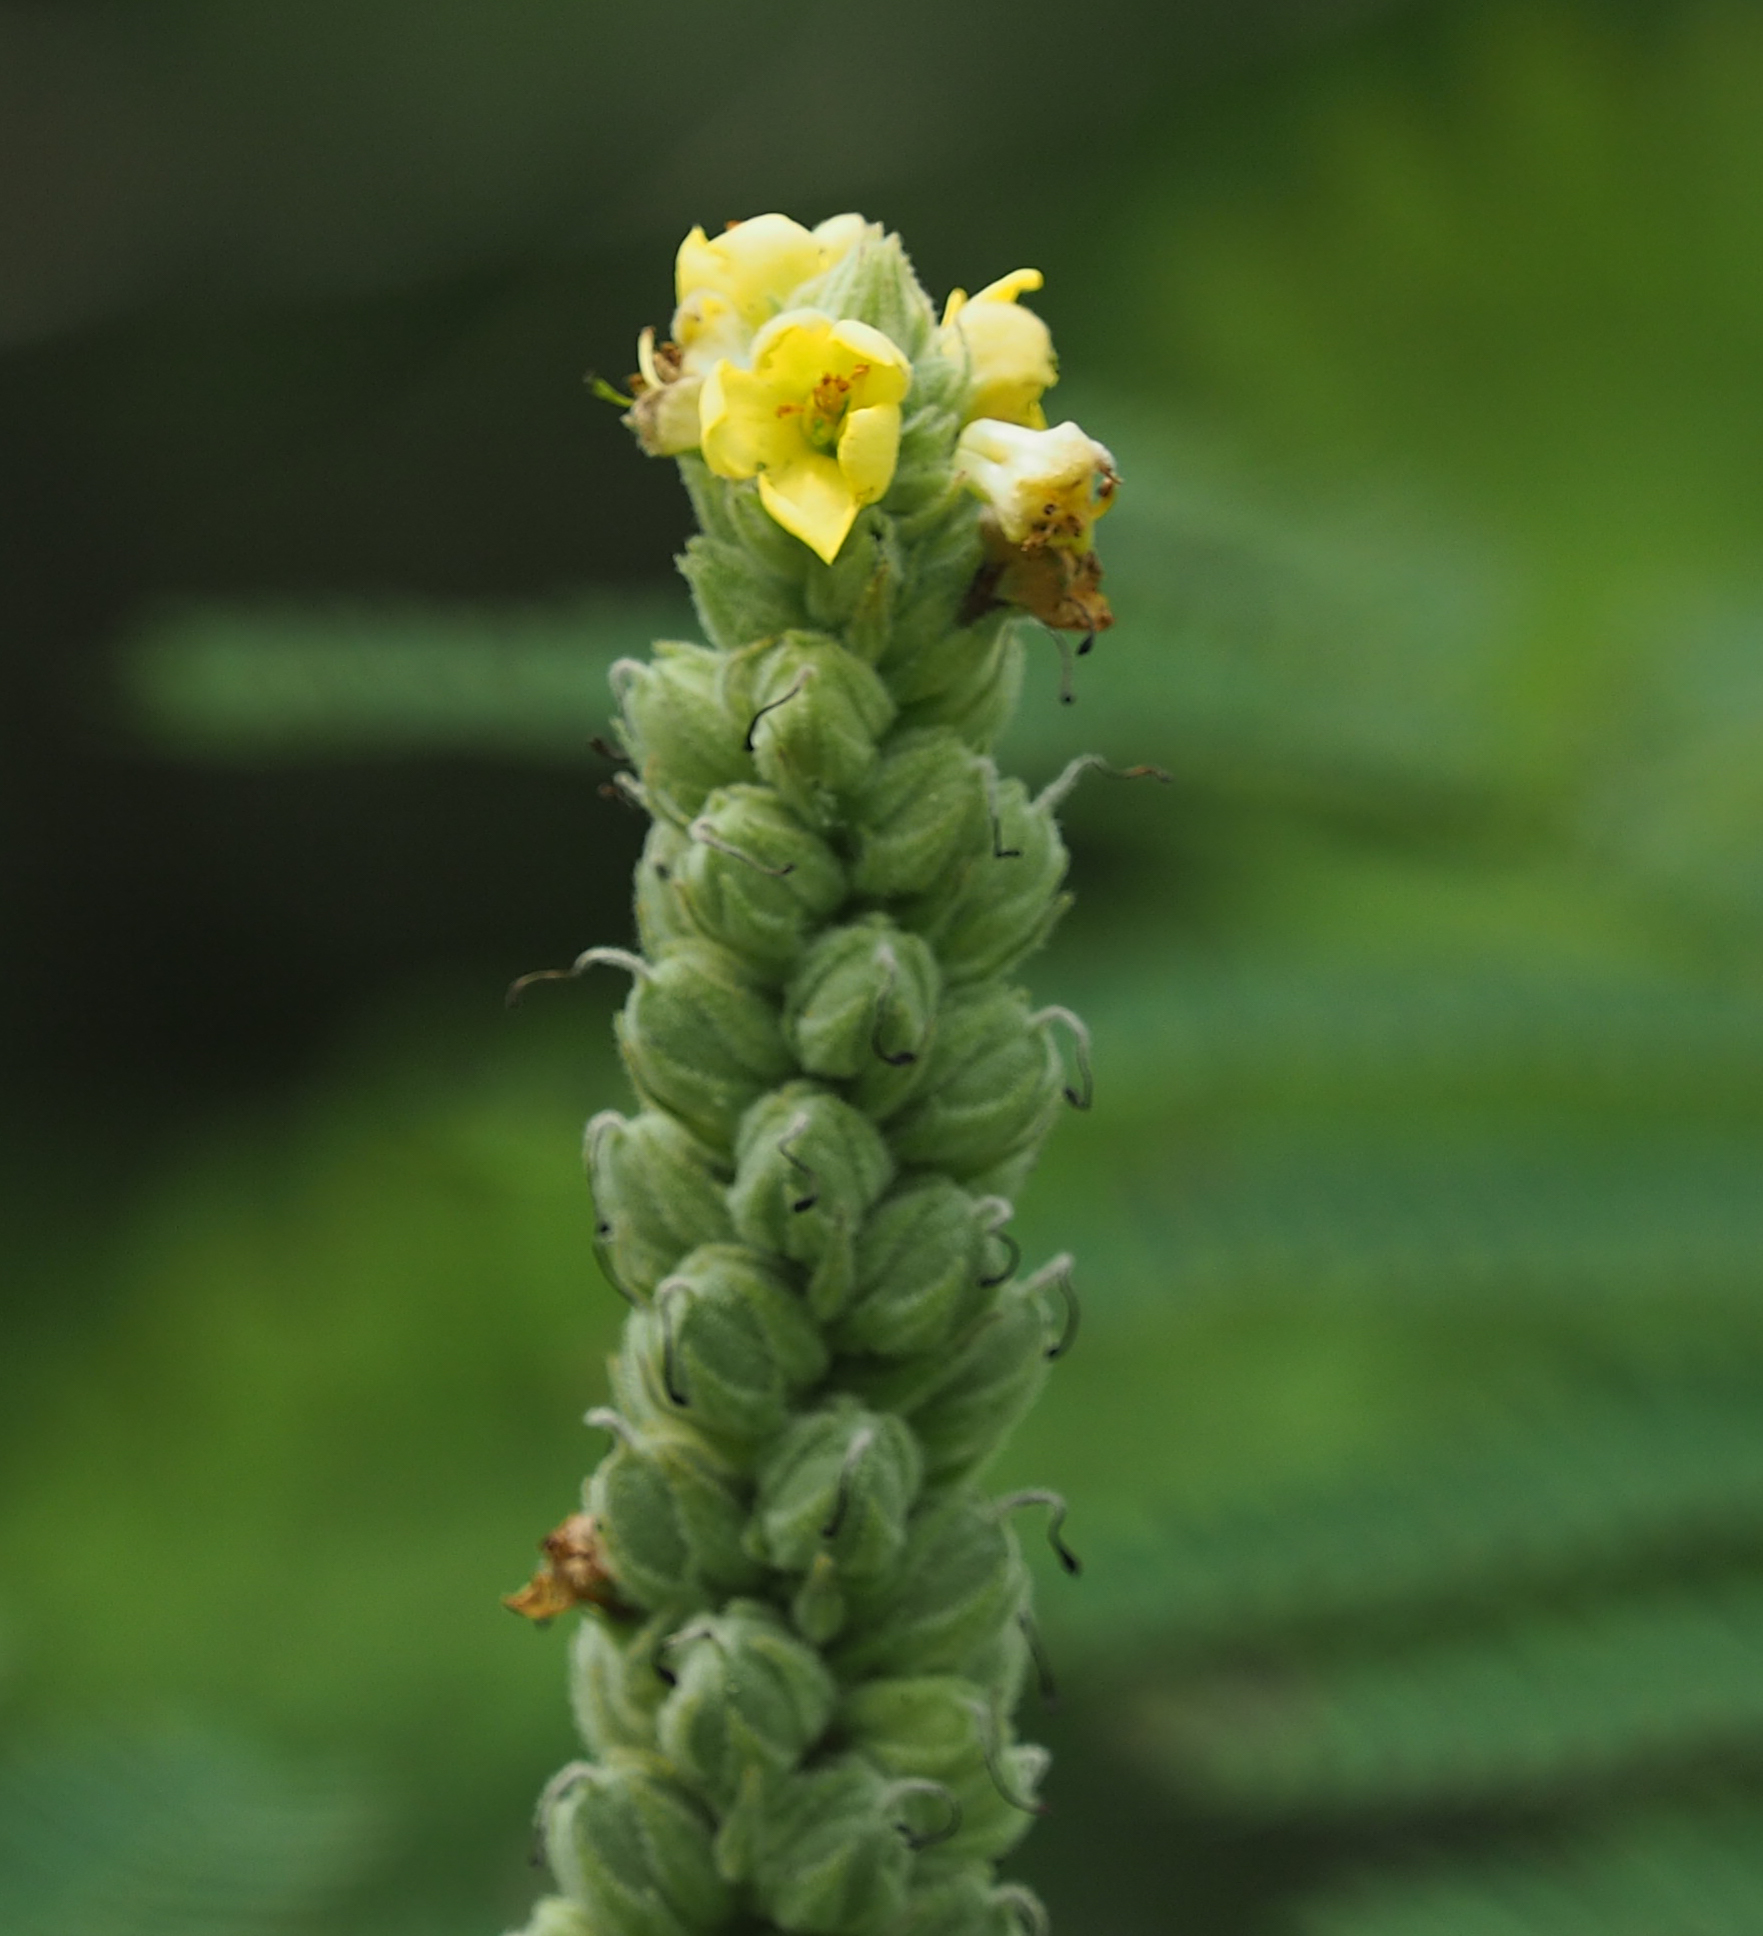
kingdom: Plantae
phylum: Tracheophyta
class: Magnoliopsida
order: Lamiales
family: Scrophulariaceae
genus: Verbascum
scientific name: Verbascum thapsus
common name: Common mullein
